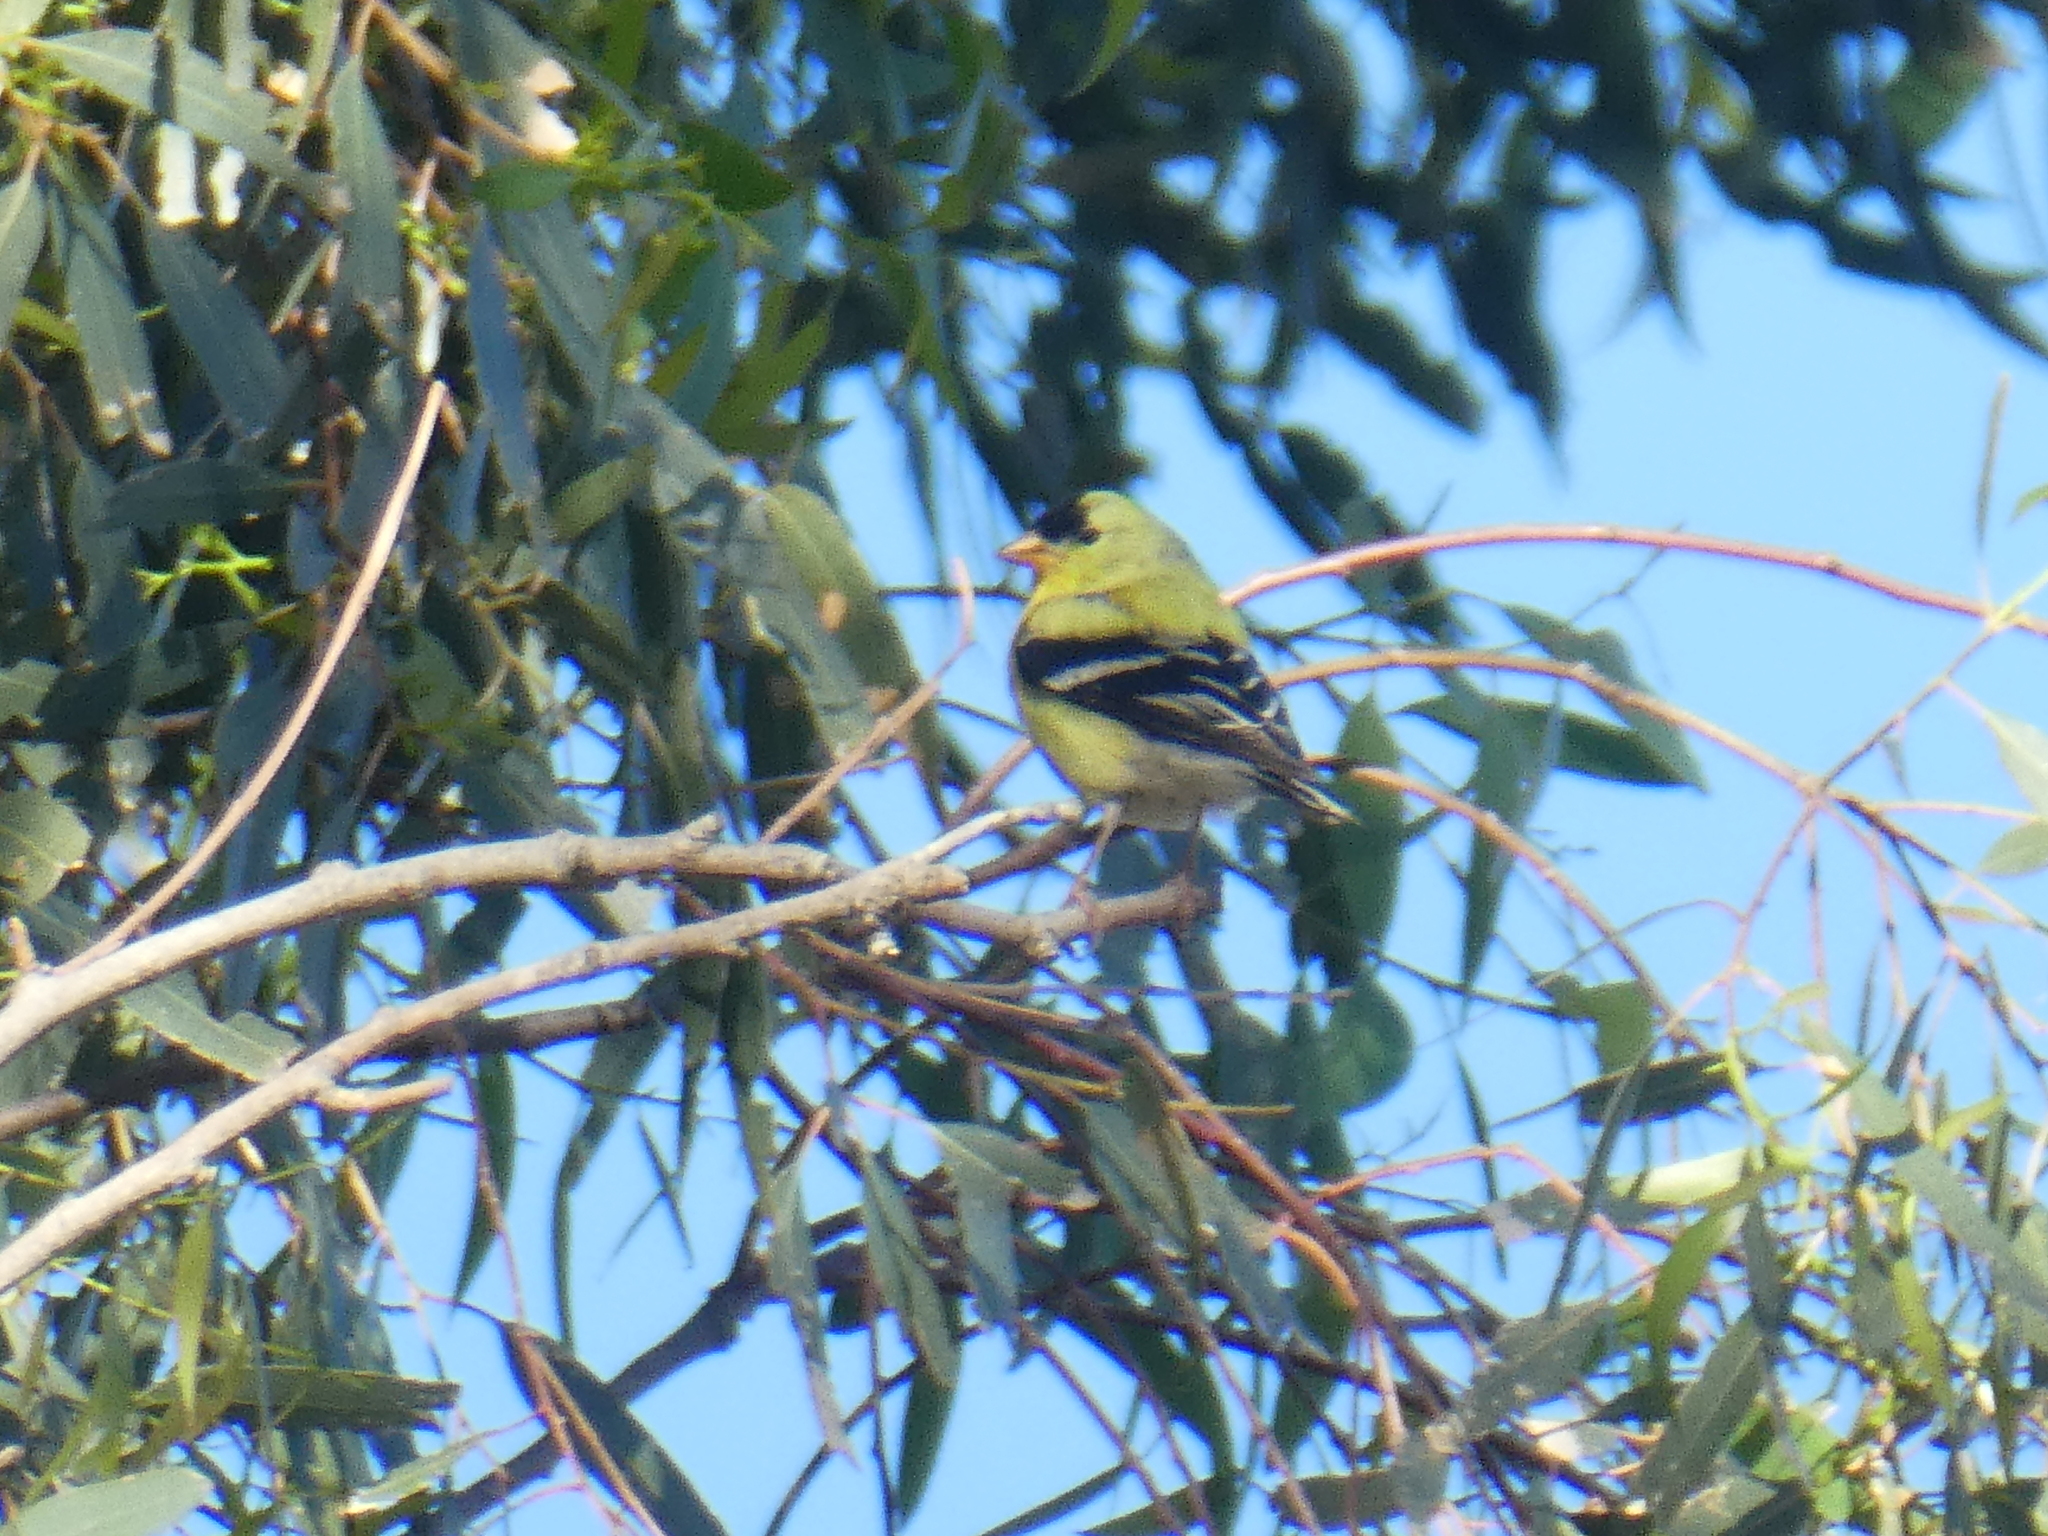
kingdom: Animalia
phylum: Chordata
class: Aves
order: Passeriformes
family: Fringillidae
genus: Spinus
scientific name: Spinus tristis
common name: American goldfinch
